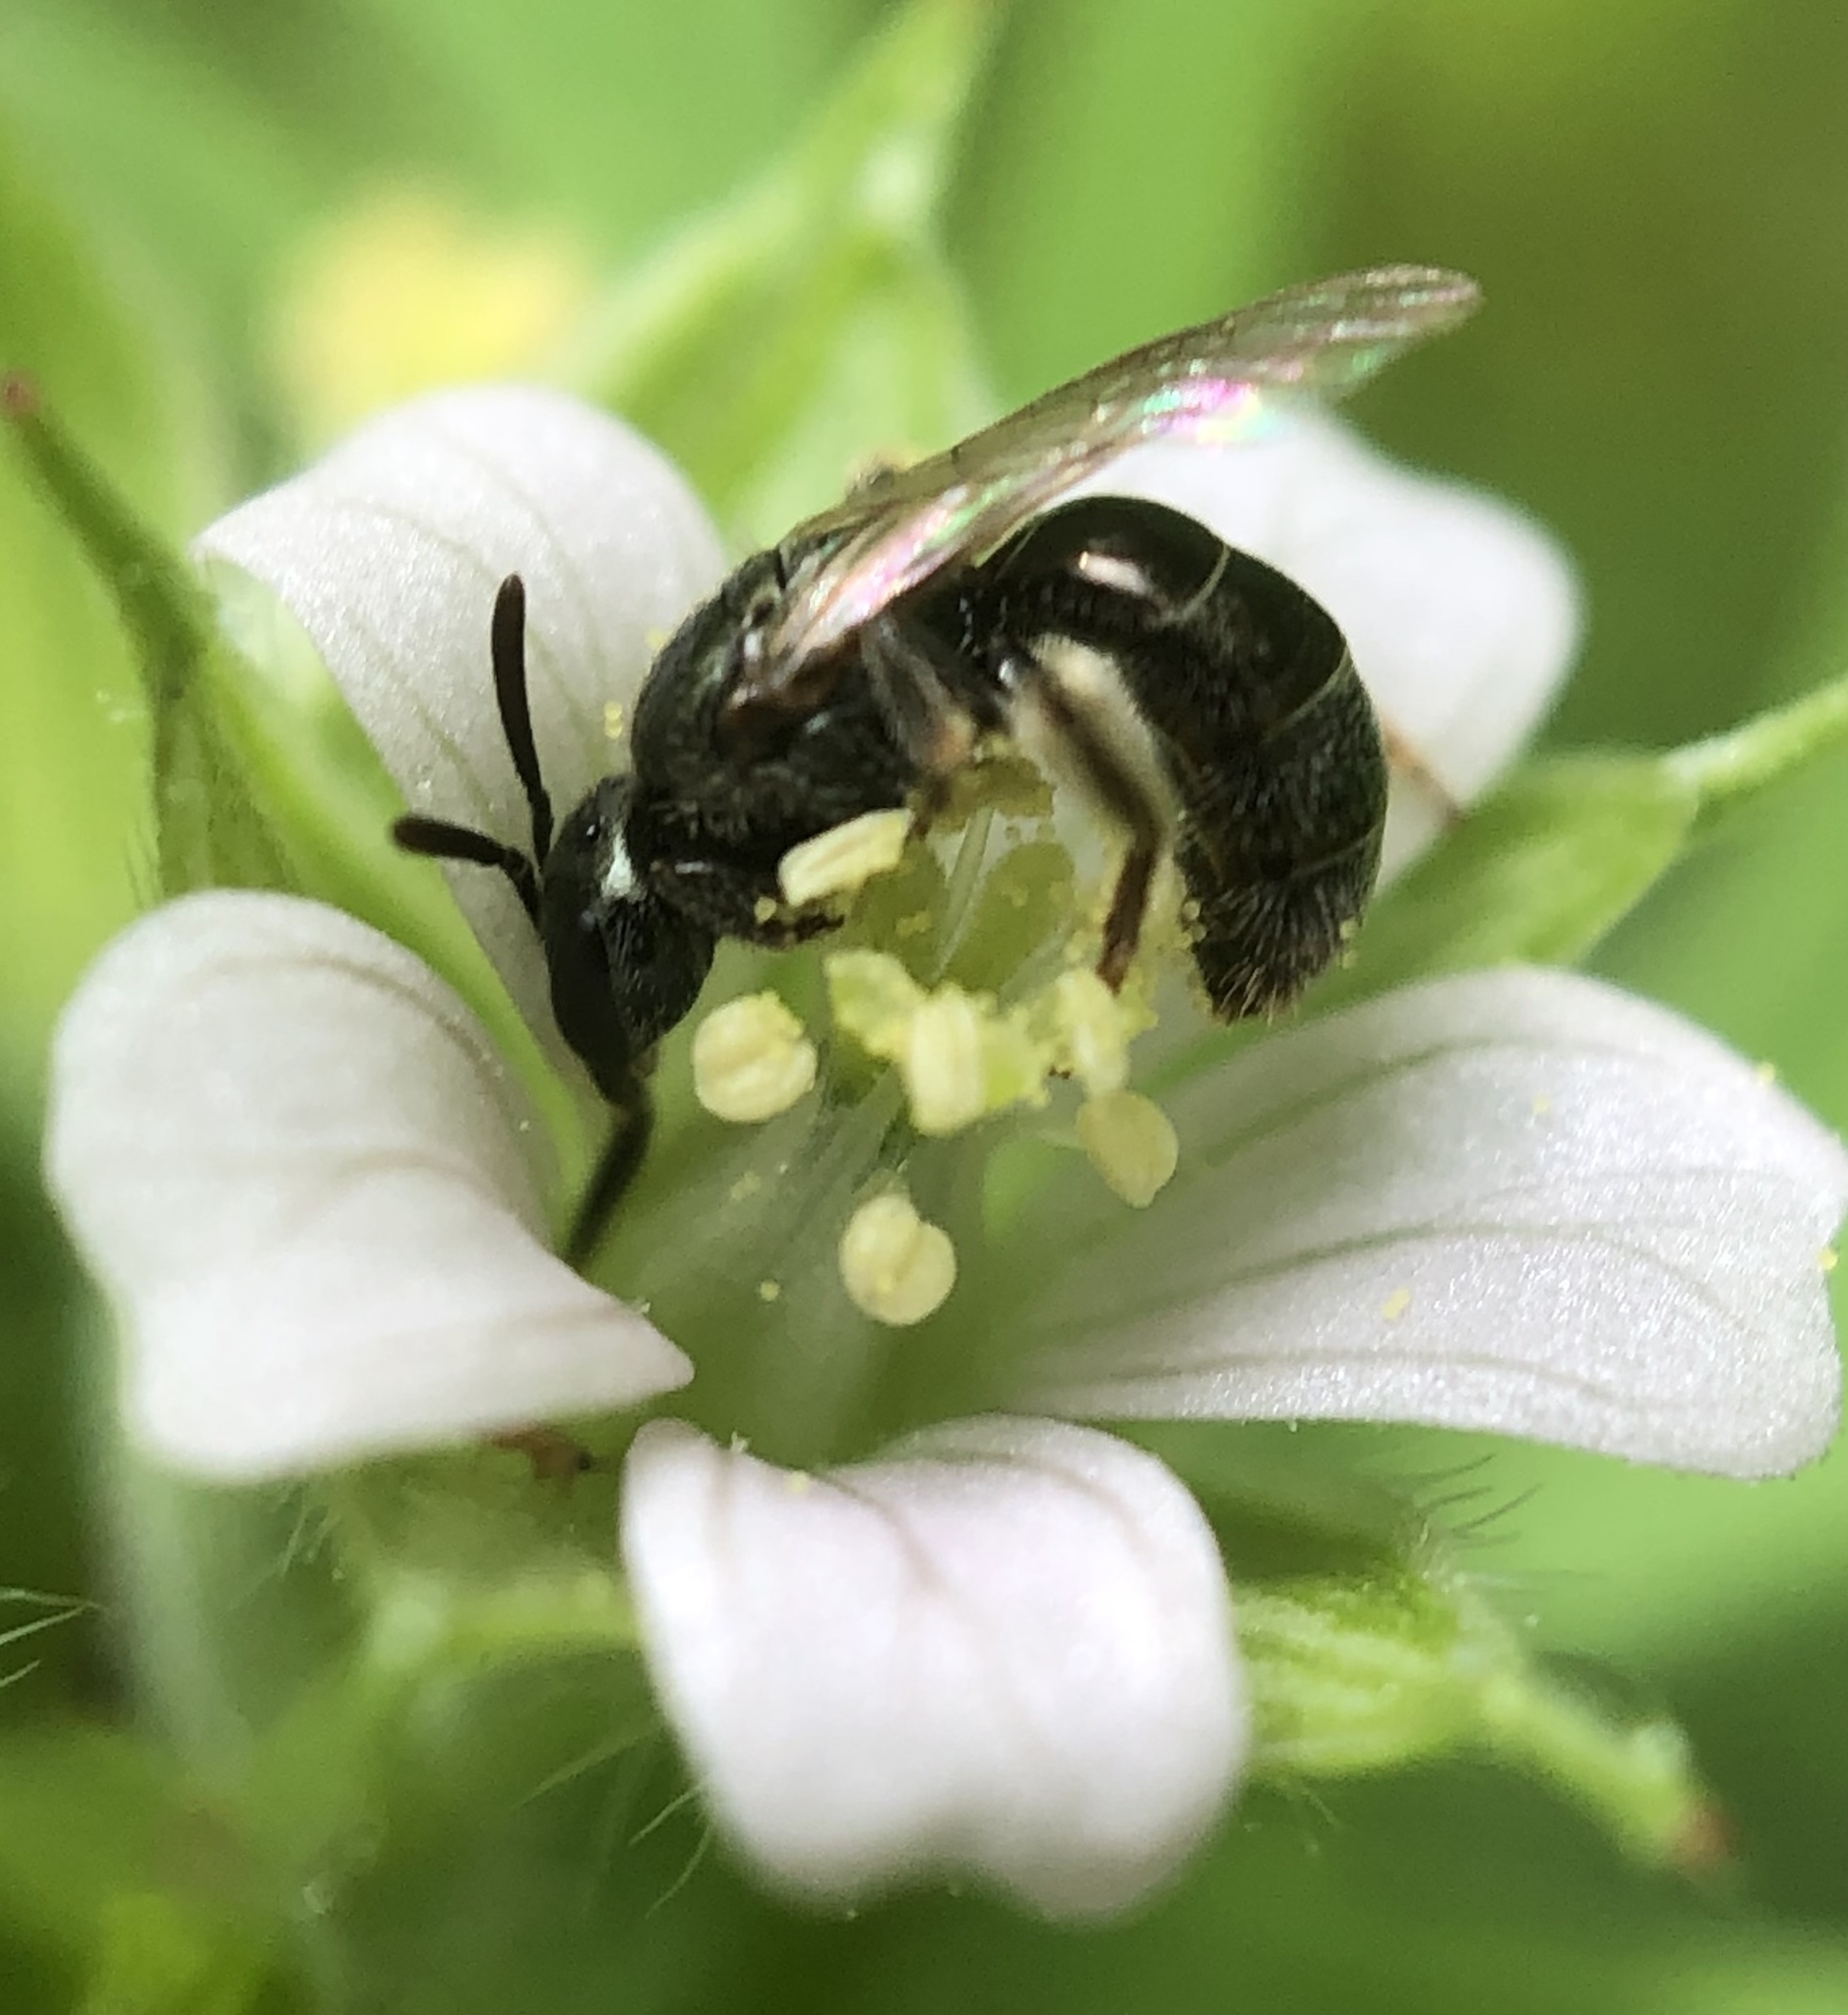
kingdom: Animalia
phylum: Arthropoda
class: Insecta
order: Hymenoptera
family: Halictidae
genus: Lasioglossum
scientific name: Lasioglossum imitatum
